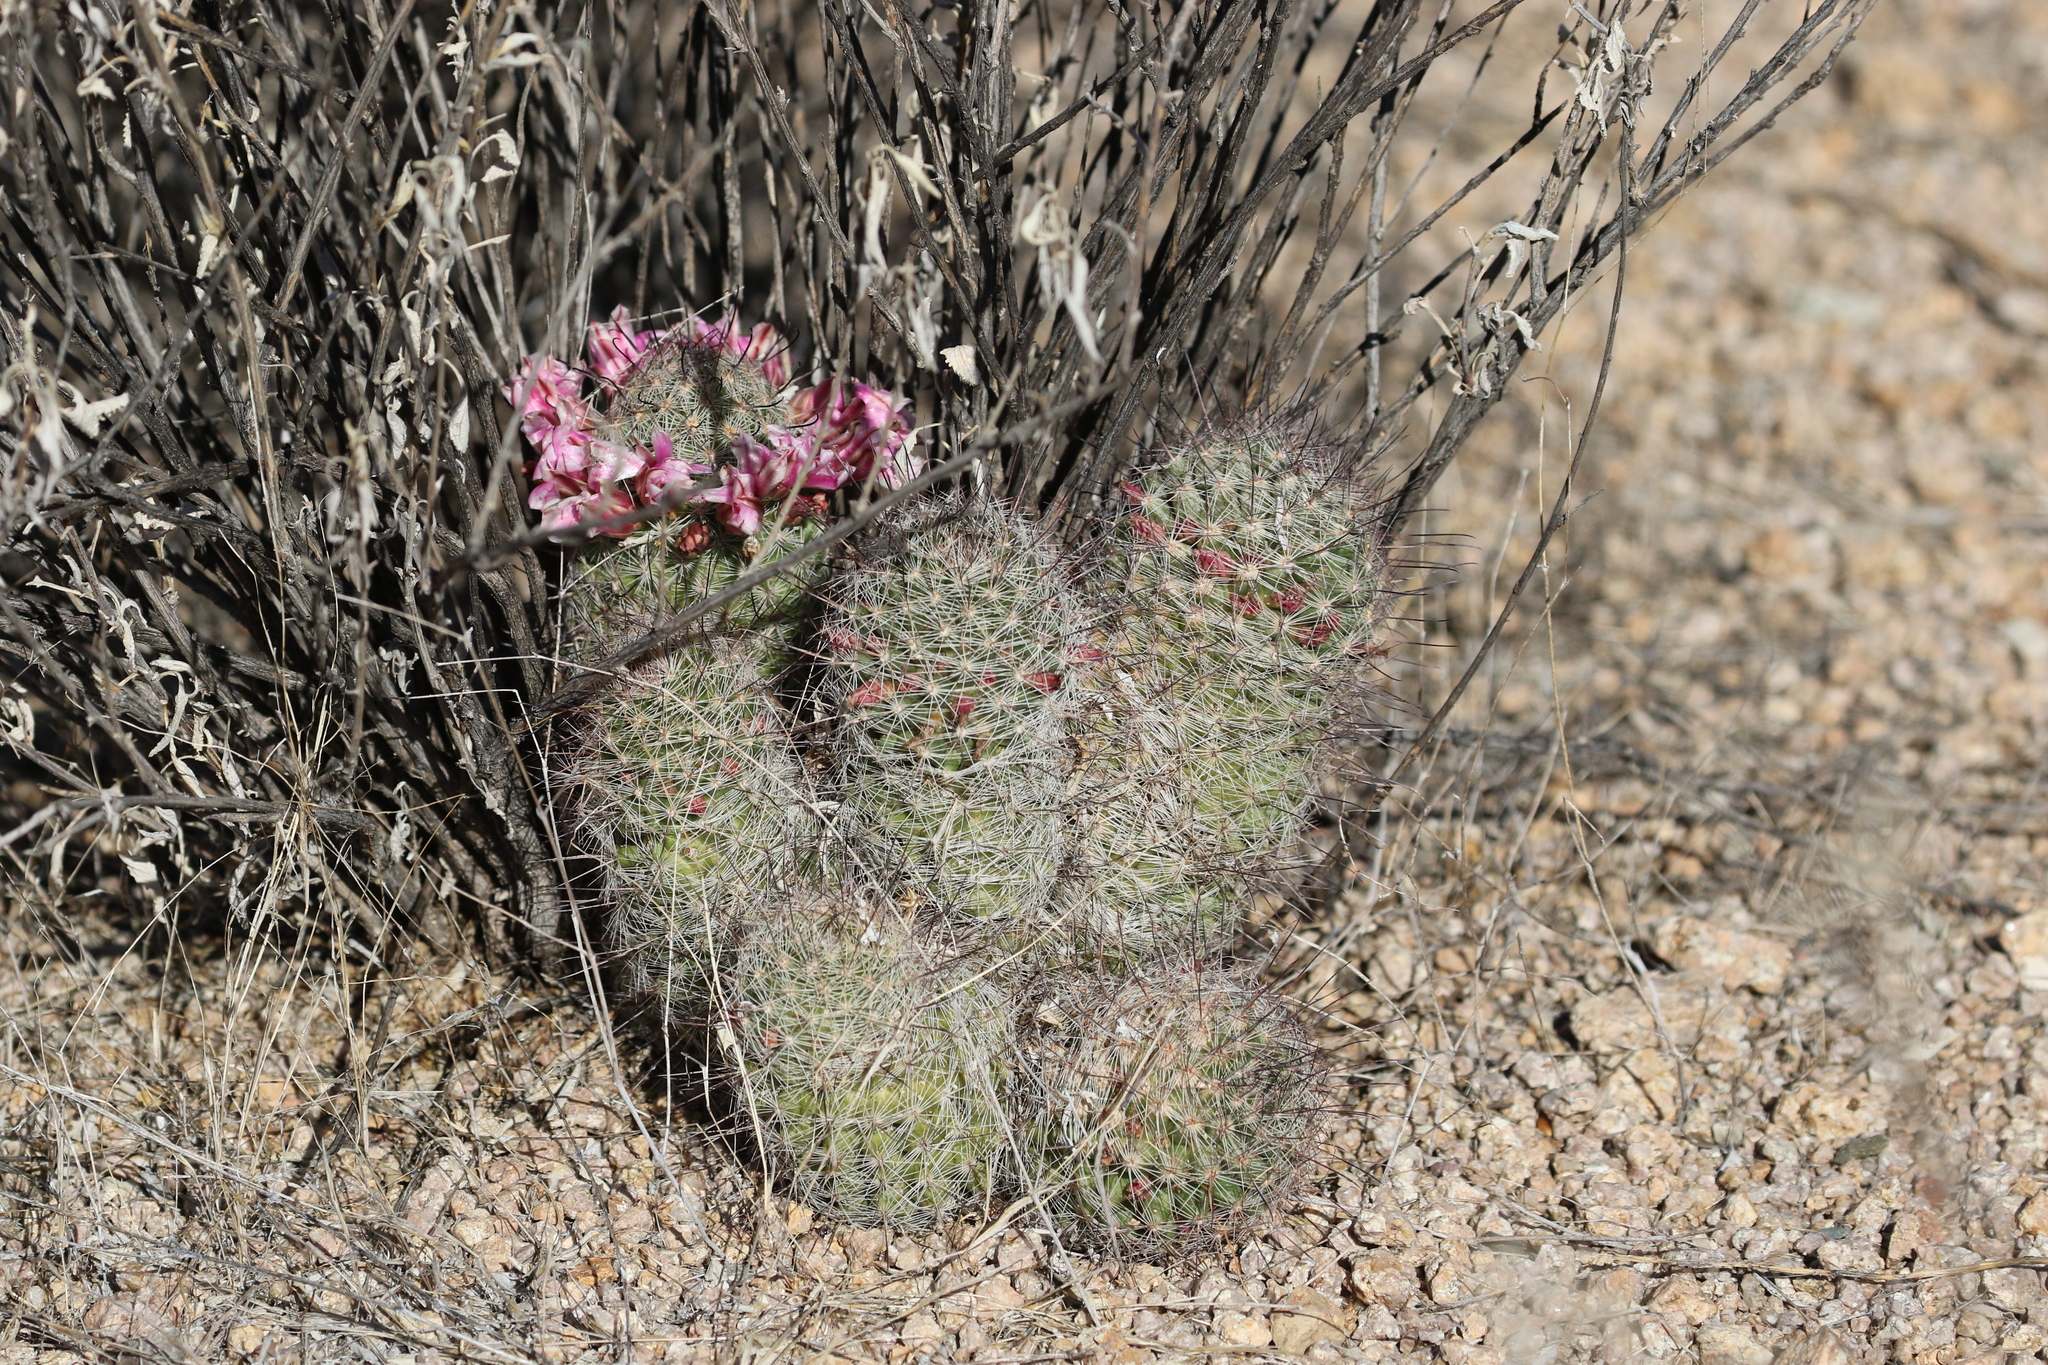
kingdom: Plantae
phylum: Tracheophyta
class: Magnoliopsida
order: Caryophyllales
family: Cactaceae
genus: Cochemiea
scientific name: Cochemiea grahamii
